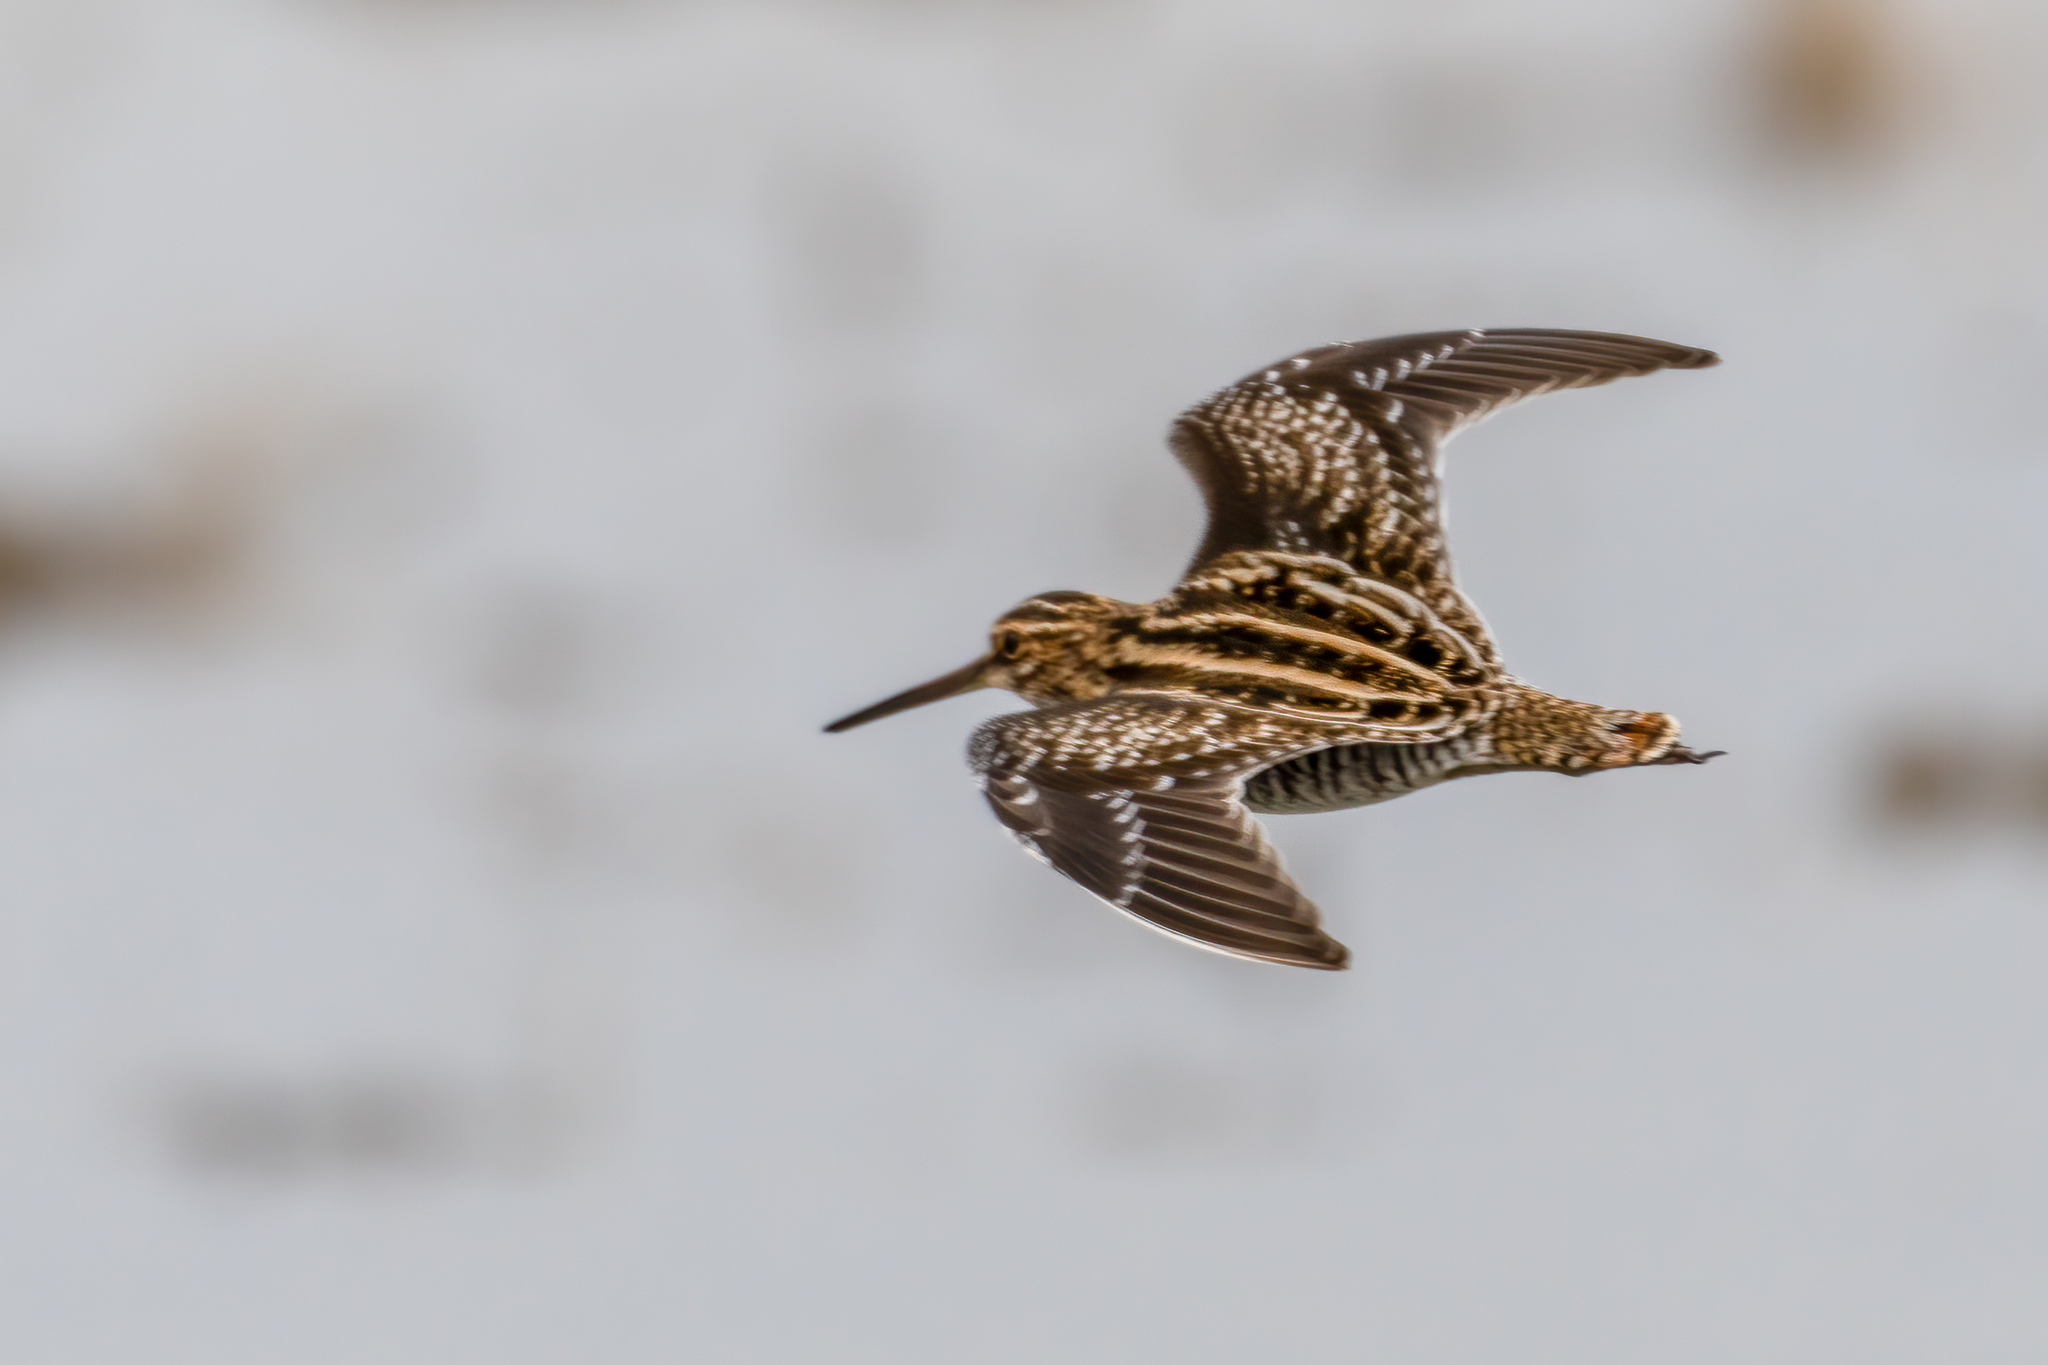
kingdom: Animalia
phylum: Chordata
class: Aves
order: Charadriiformes
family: Scolopacidae
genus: Gallinago
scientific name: Gallinago delicata
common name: Wilson's snipe
